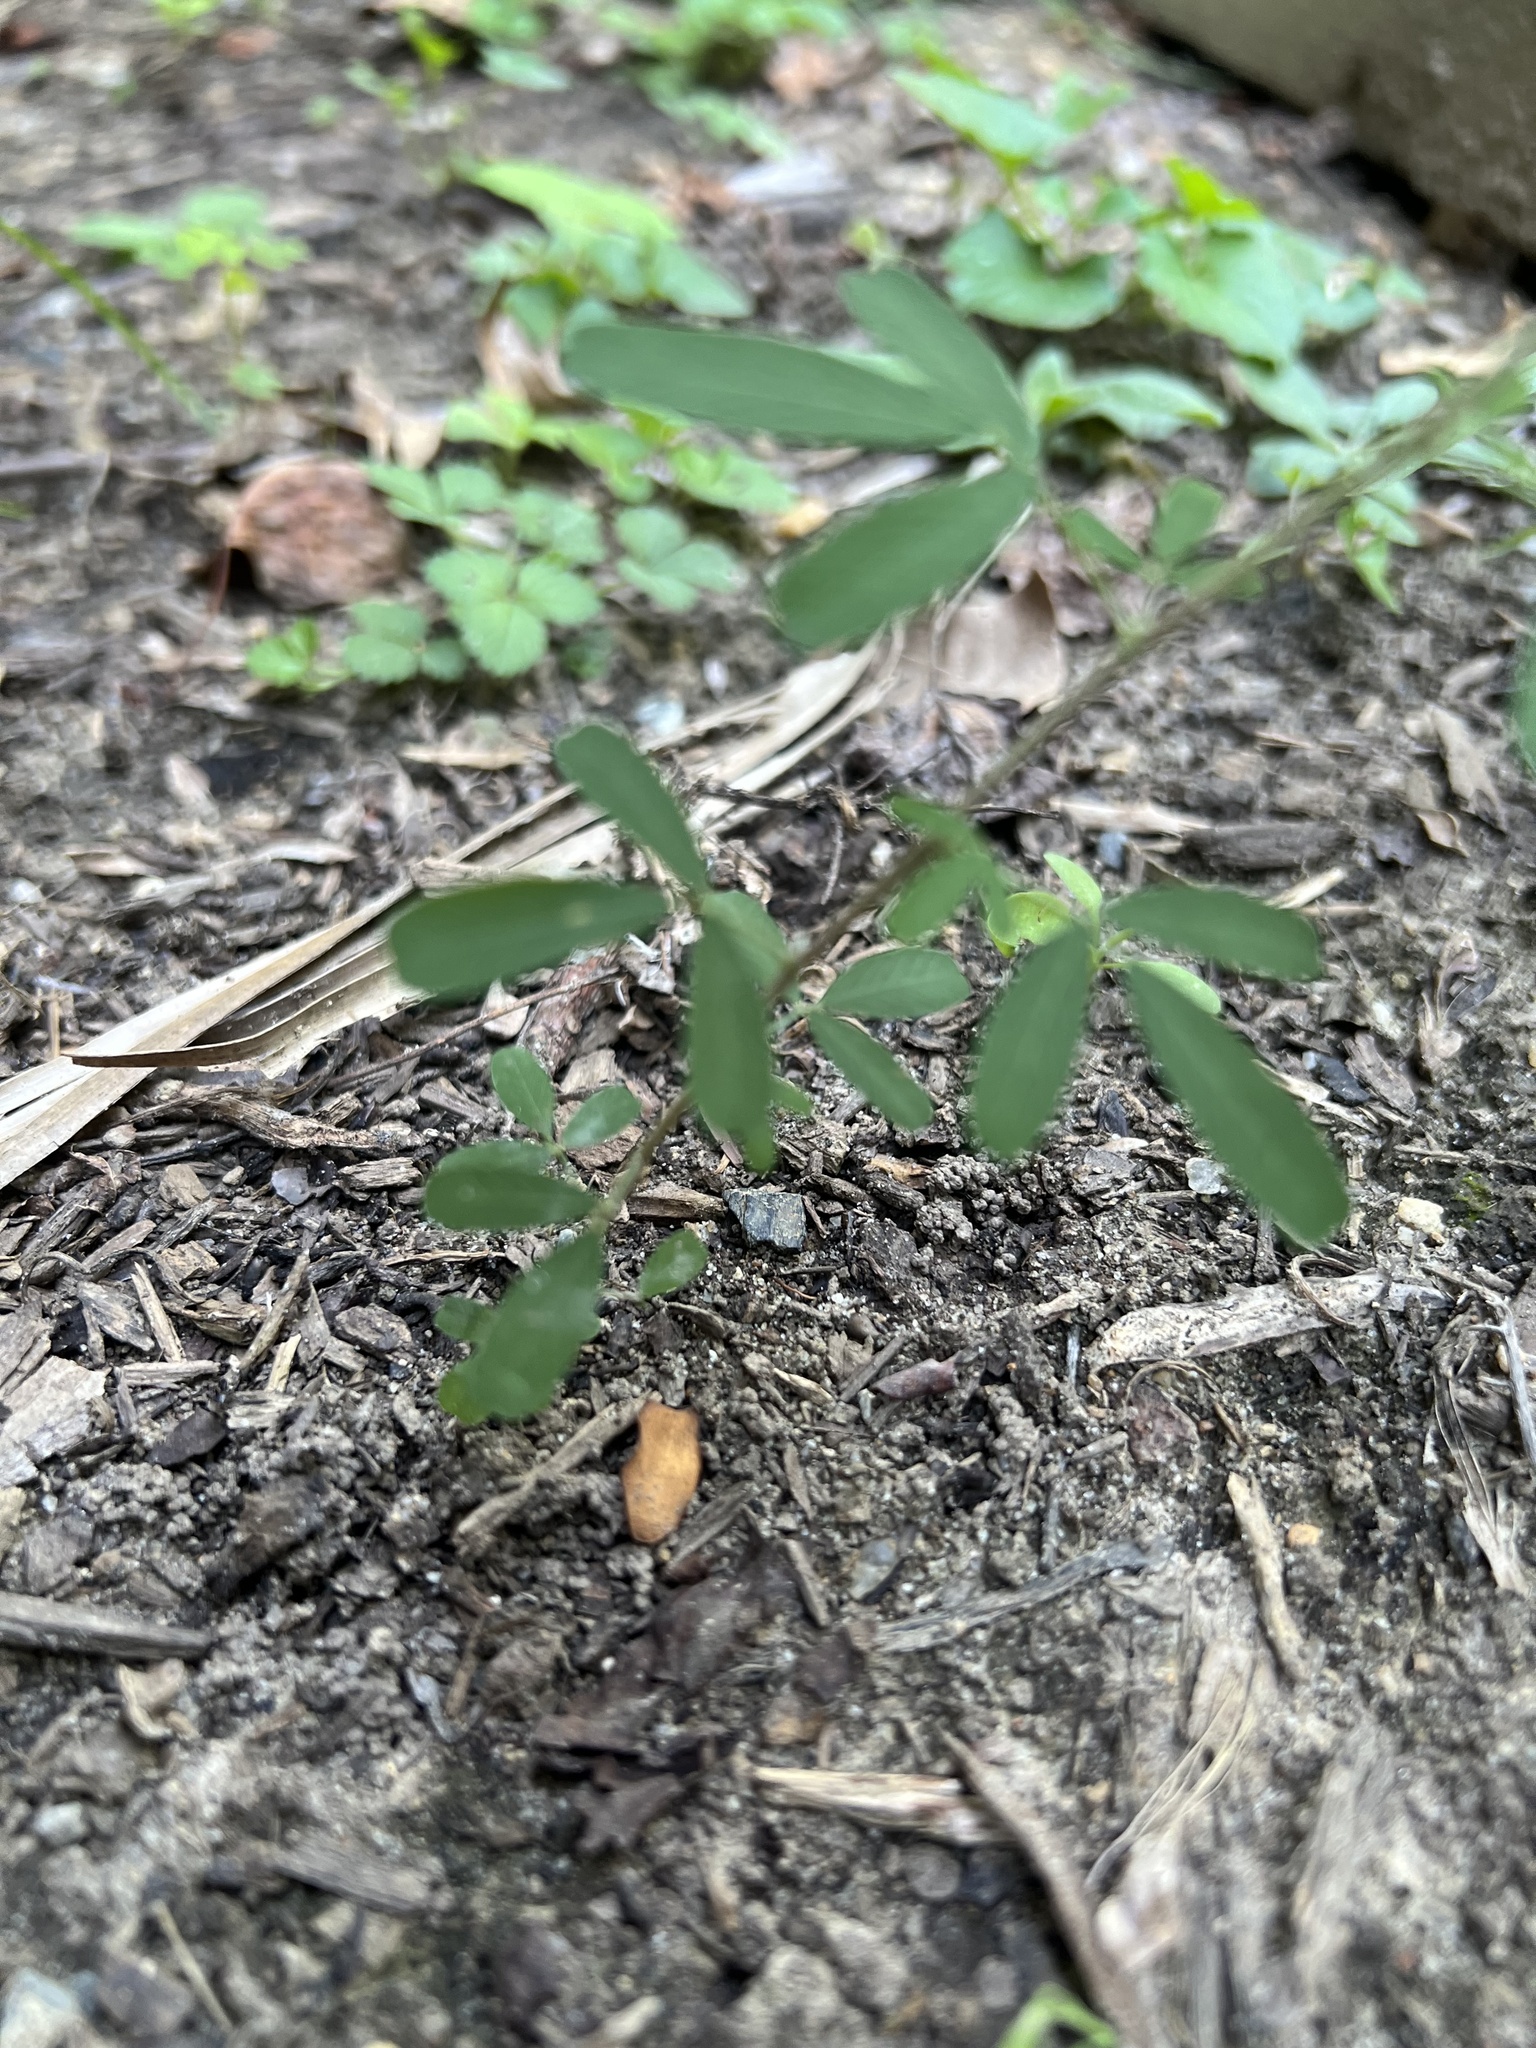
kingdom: Plantae
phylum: Tracheophyta
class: Magnoliopsida
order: Fabales
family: Fabaceae
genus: Lespedeza
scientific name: Lespedeza cuneata
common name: Chinese bush-clover
